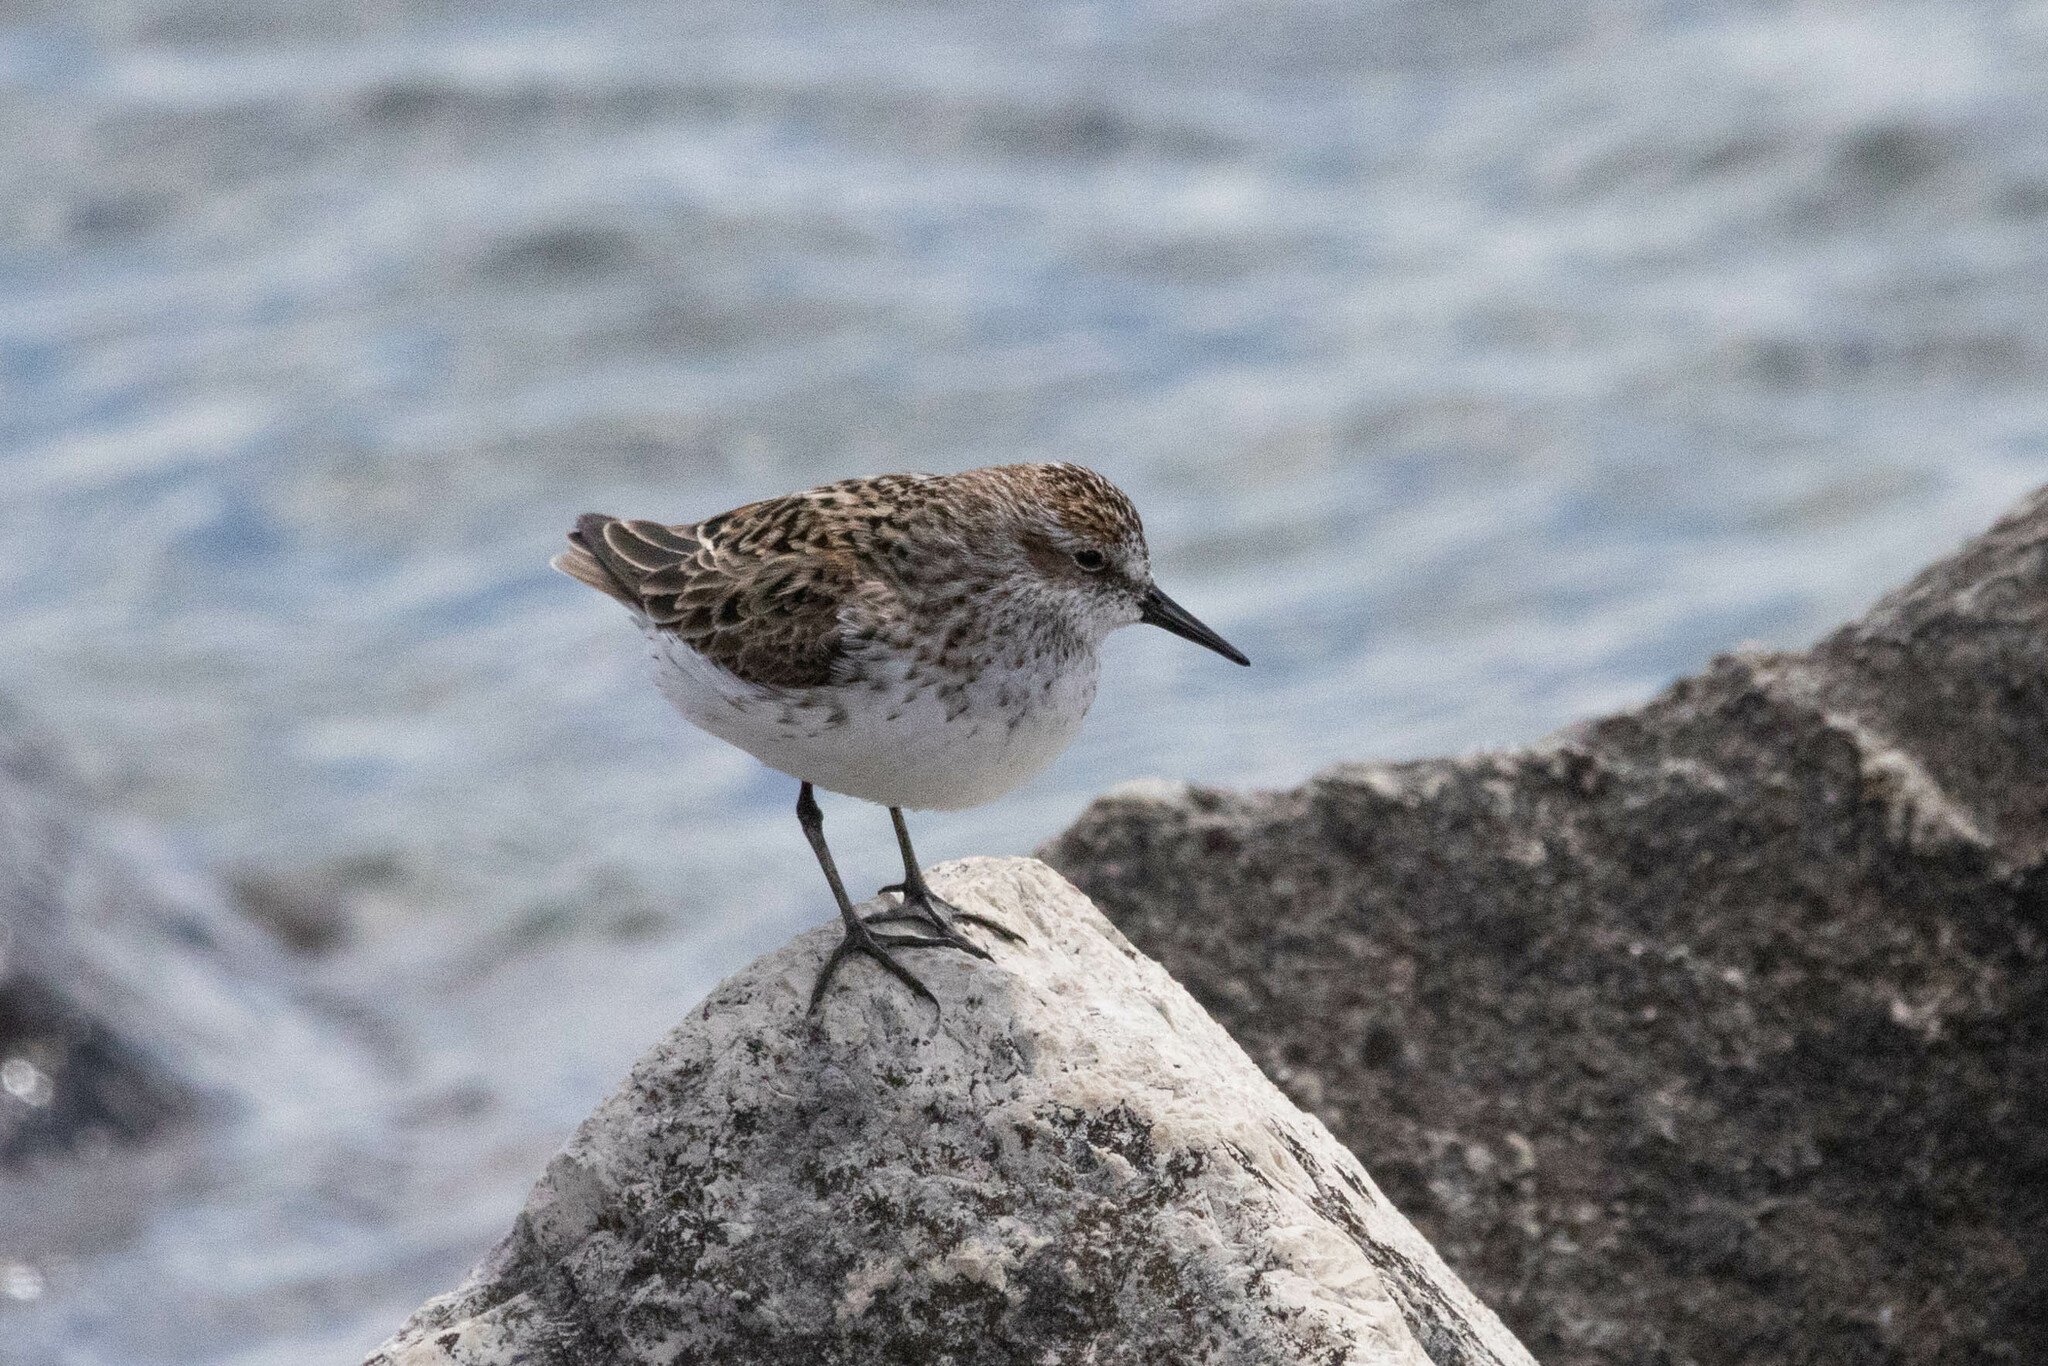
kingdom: Animalia
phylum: Chordata
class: Aves
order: Charadriiformes
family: Scolopacidae
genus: Calidris
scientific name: Calidris pusilla
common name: Semipalmated sandpiper
